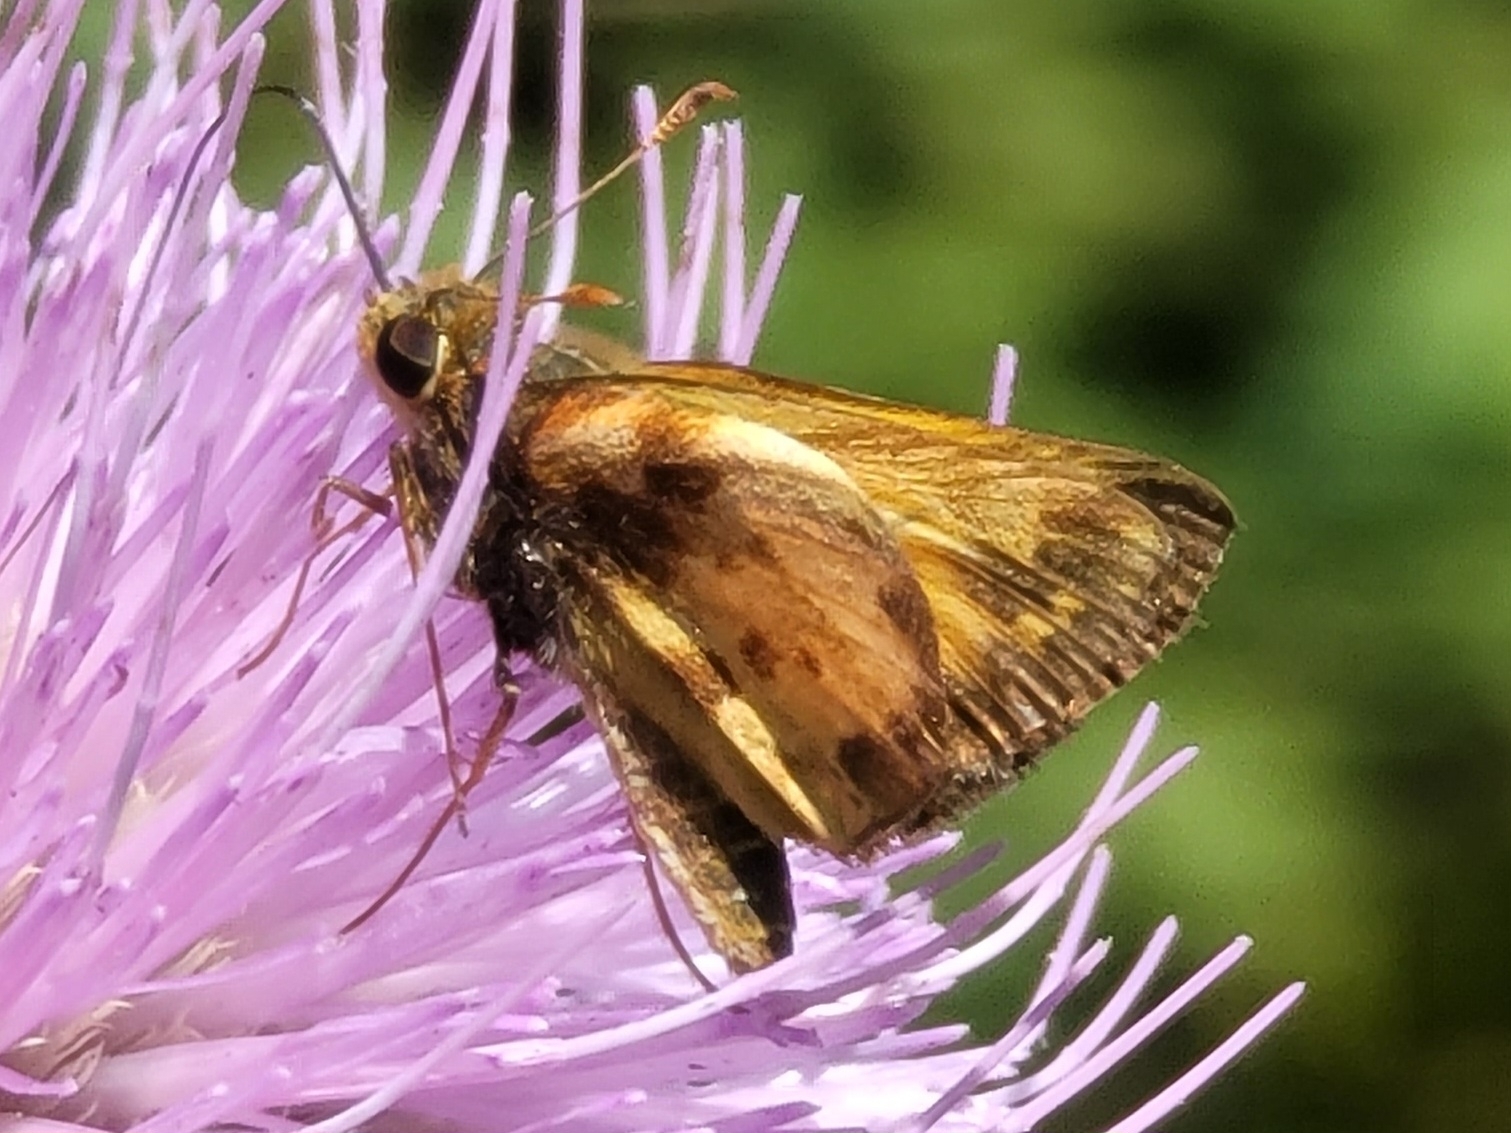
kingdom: Animalia
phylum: Arthropoda
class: Insecta
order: Lepidoptera
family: Hesperiidae
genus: Lon
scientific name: Lon zabulon
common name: Zabulon skipper
